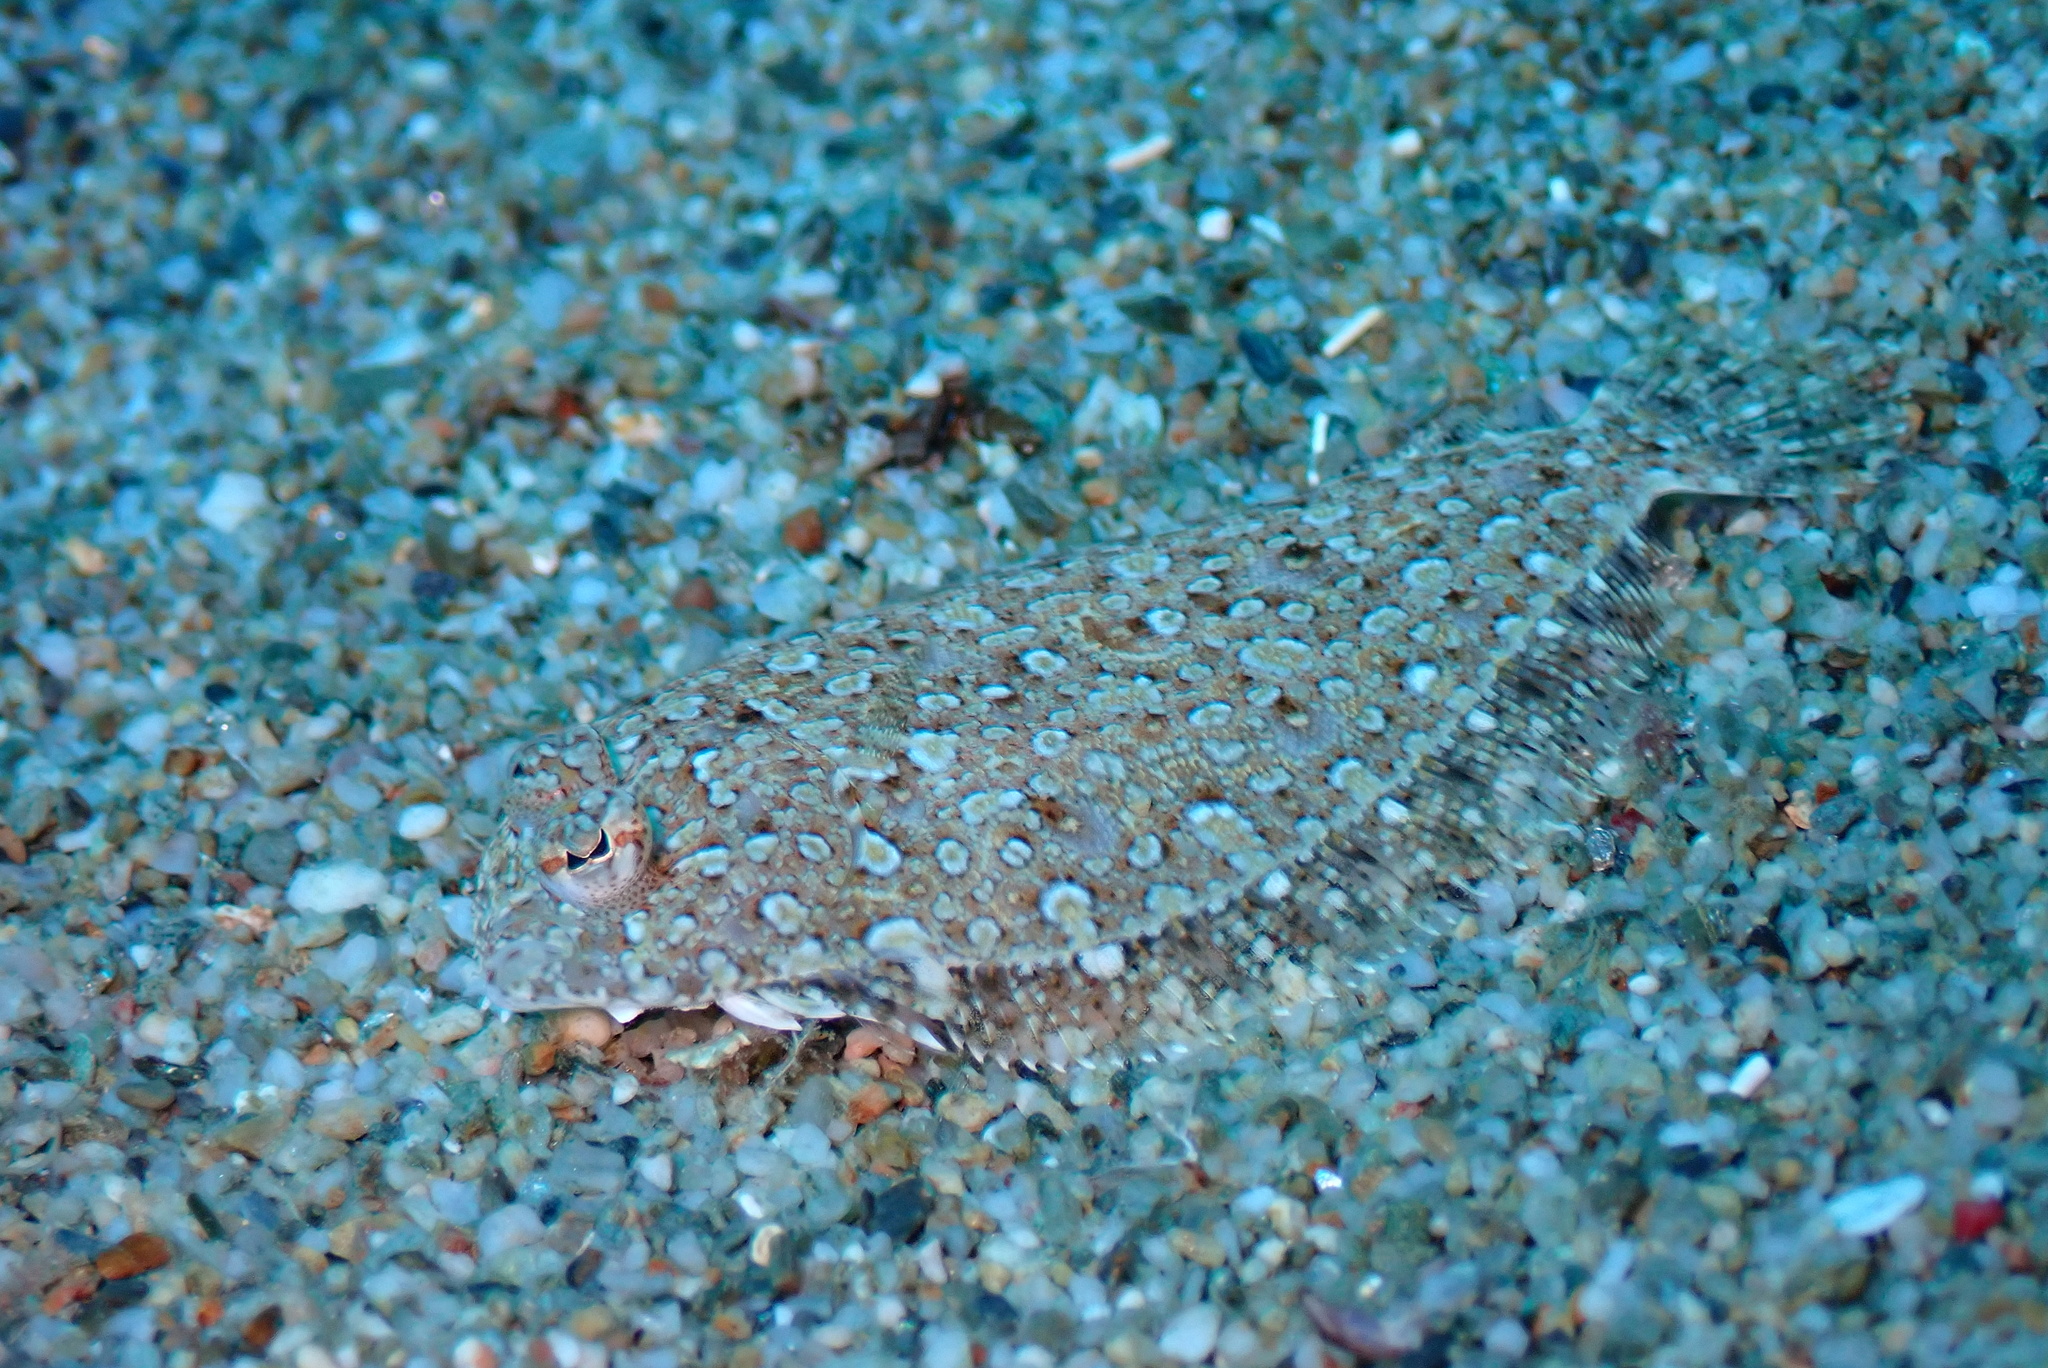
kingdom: Animalia
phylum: Chordata
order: Pleuronectiformes
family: Bothidae
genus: Bothus
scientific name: Bothus podas
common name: Wide-eyed flounder
